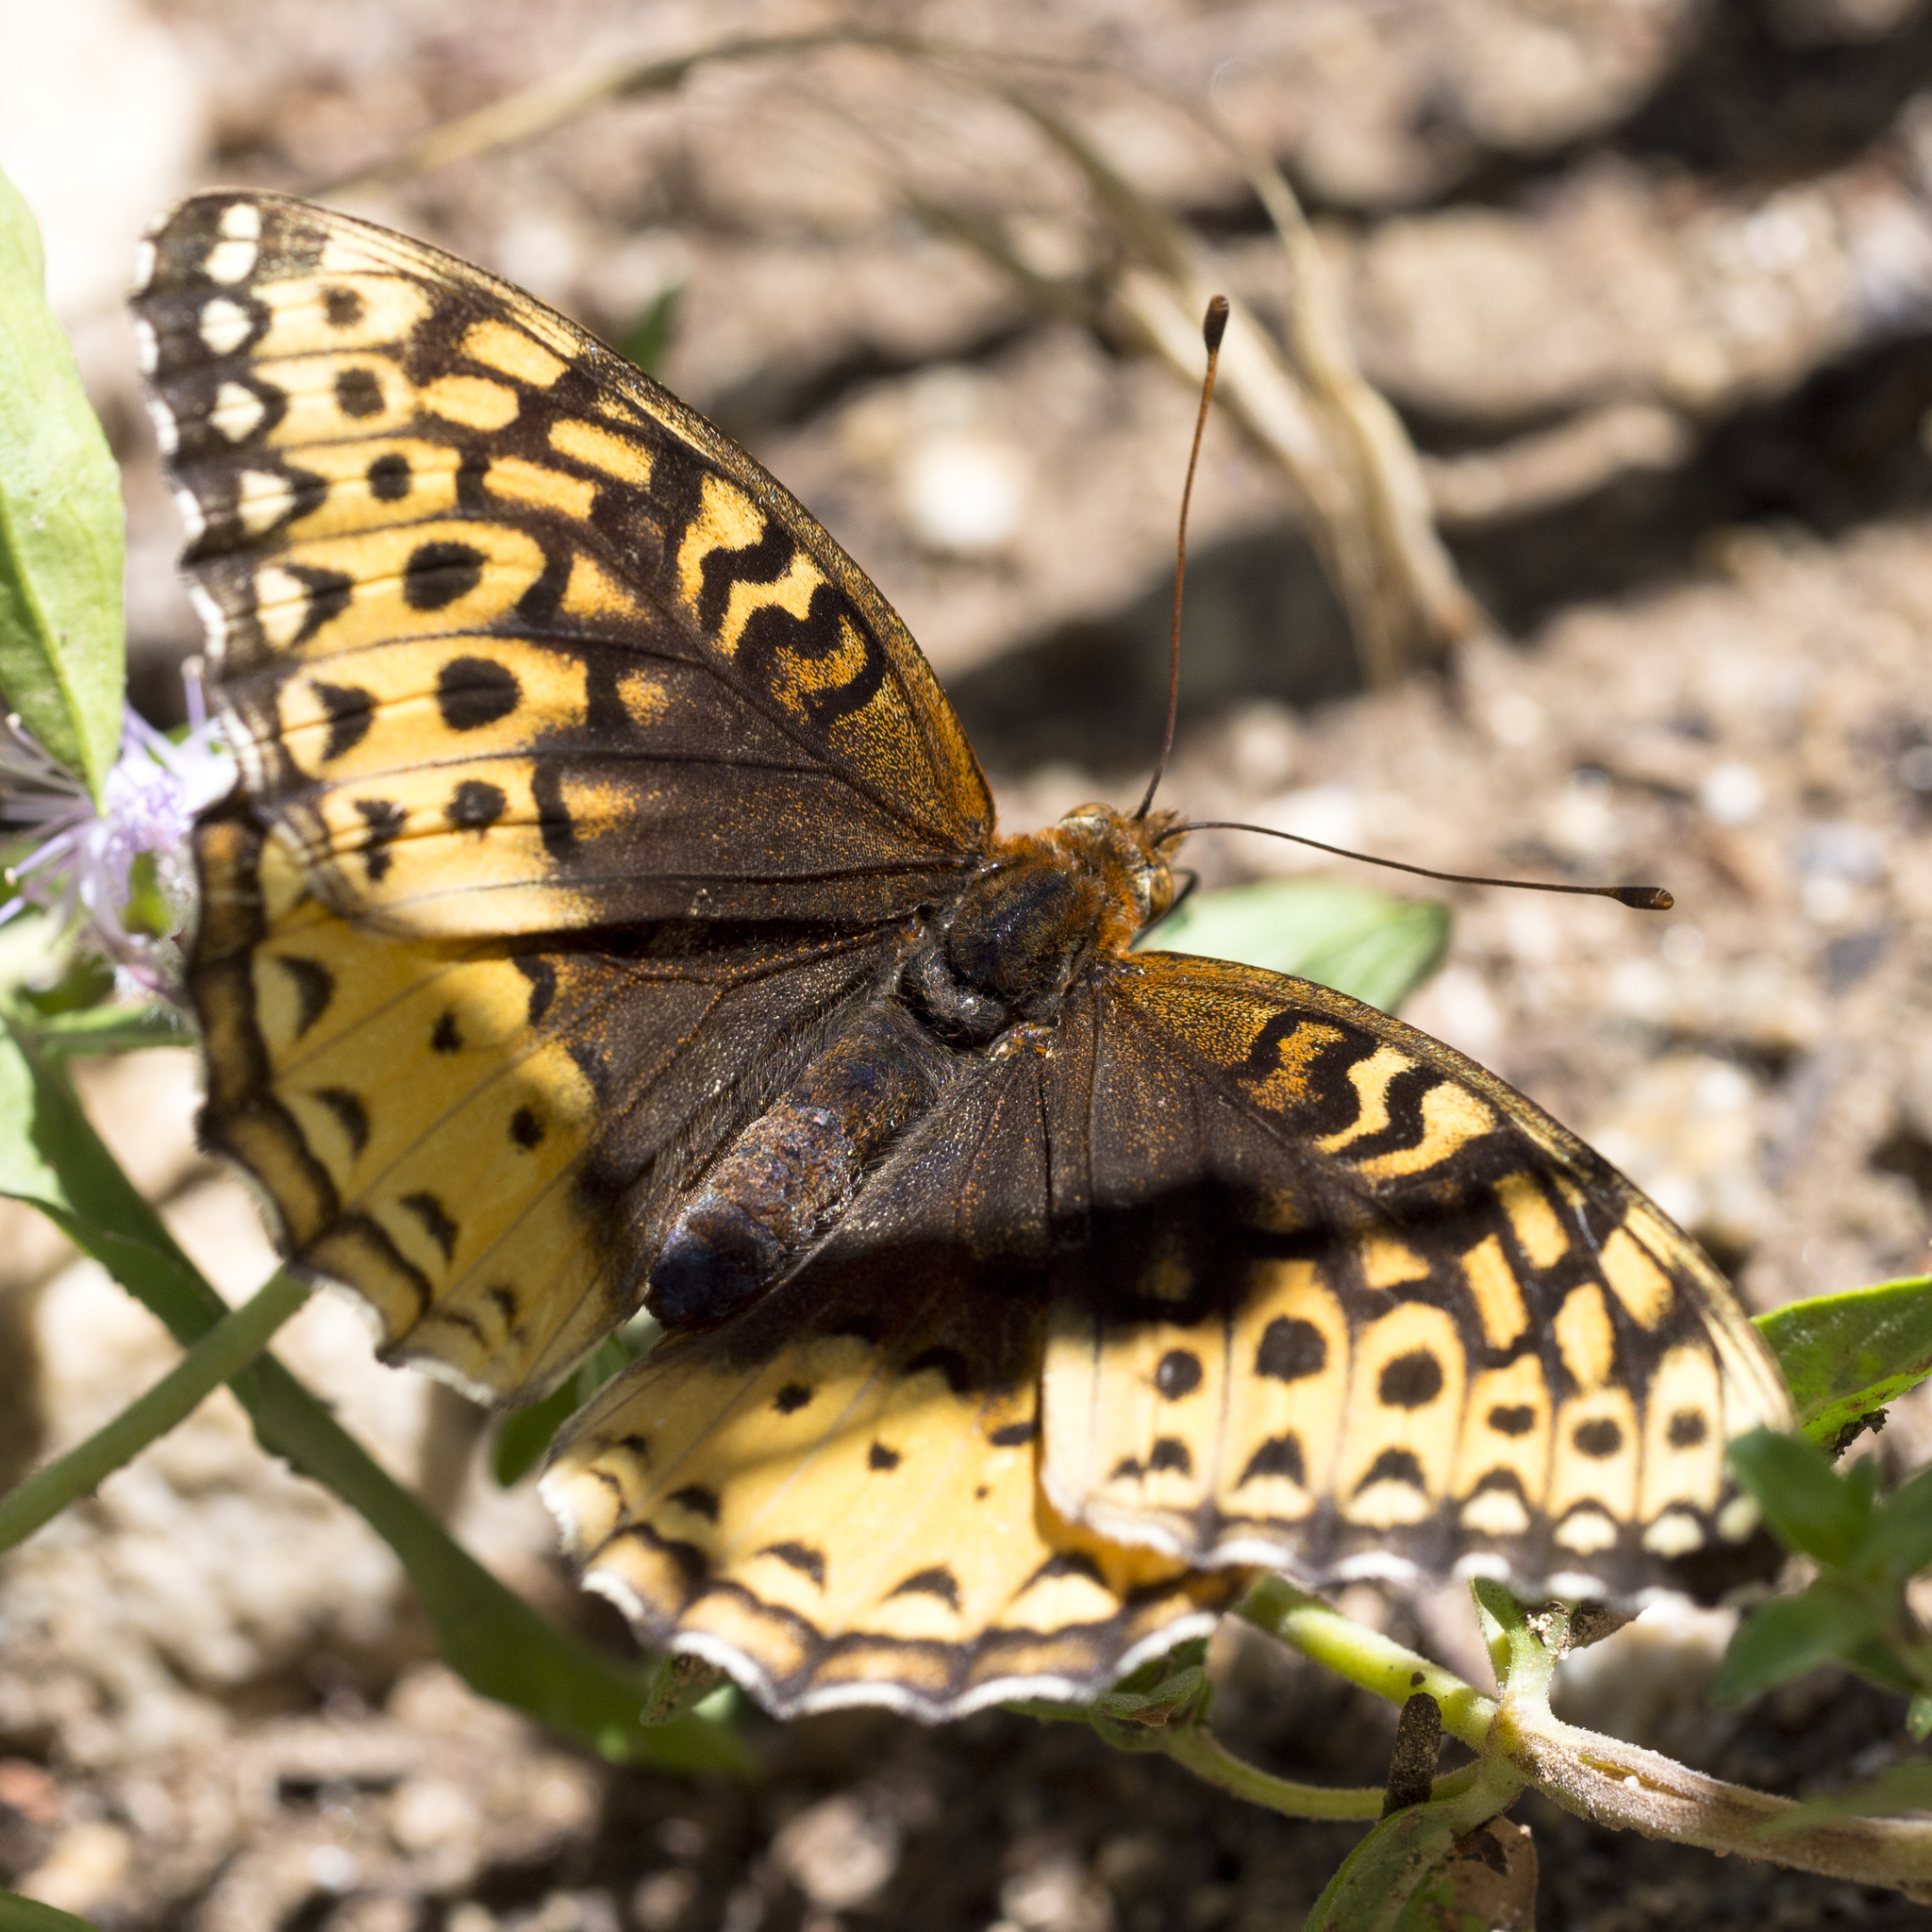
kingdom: Animalia
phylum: Arthropoda
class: Insecta
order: Lepidoptera
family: Nymphalidae
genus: Speyeria
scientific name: Speyeria cybele
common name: Great spangled fritillary
